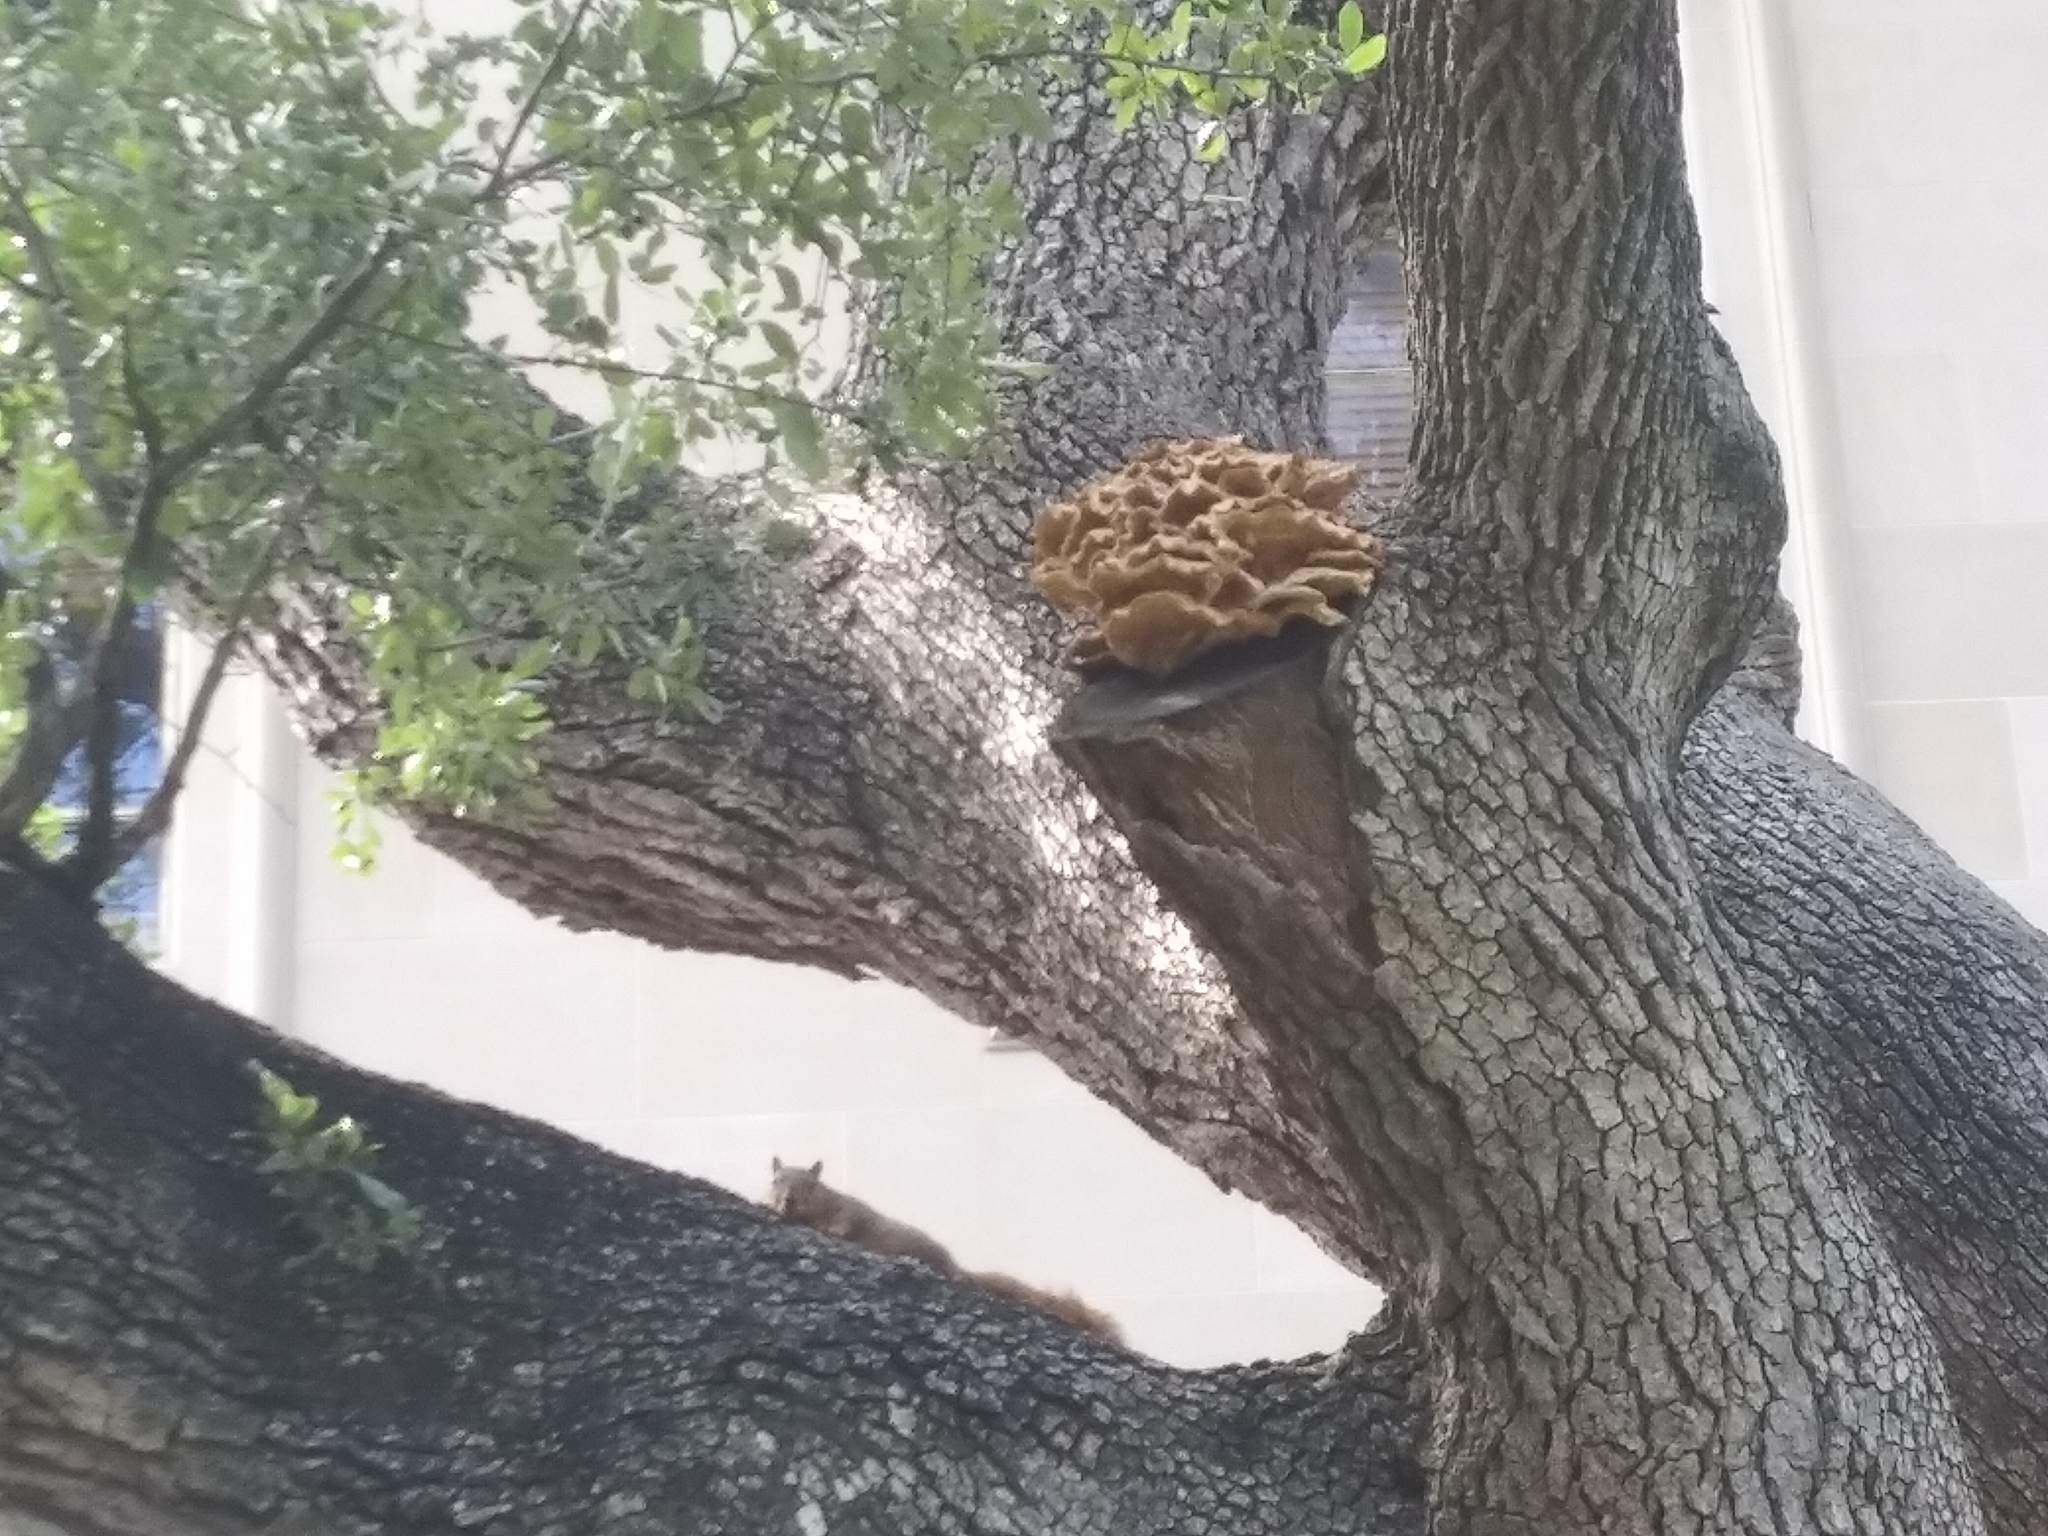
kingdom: Animalia
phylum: Chordata
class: Mammalia
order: Rodentia
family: Sciuridae
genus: Sciurus
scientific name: Sciurus niger
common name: Fox squirrel
